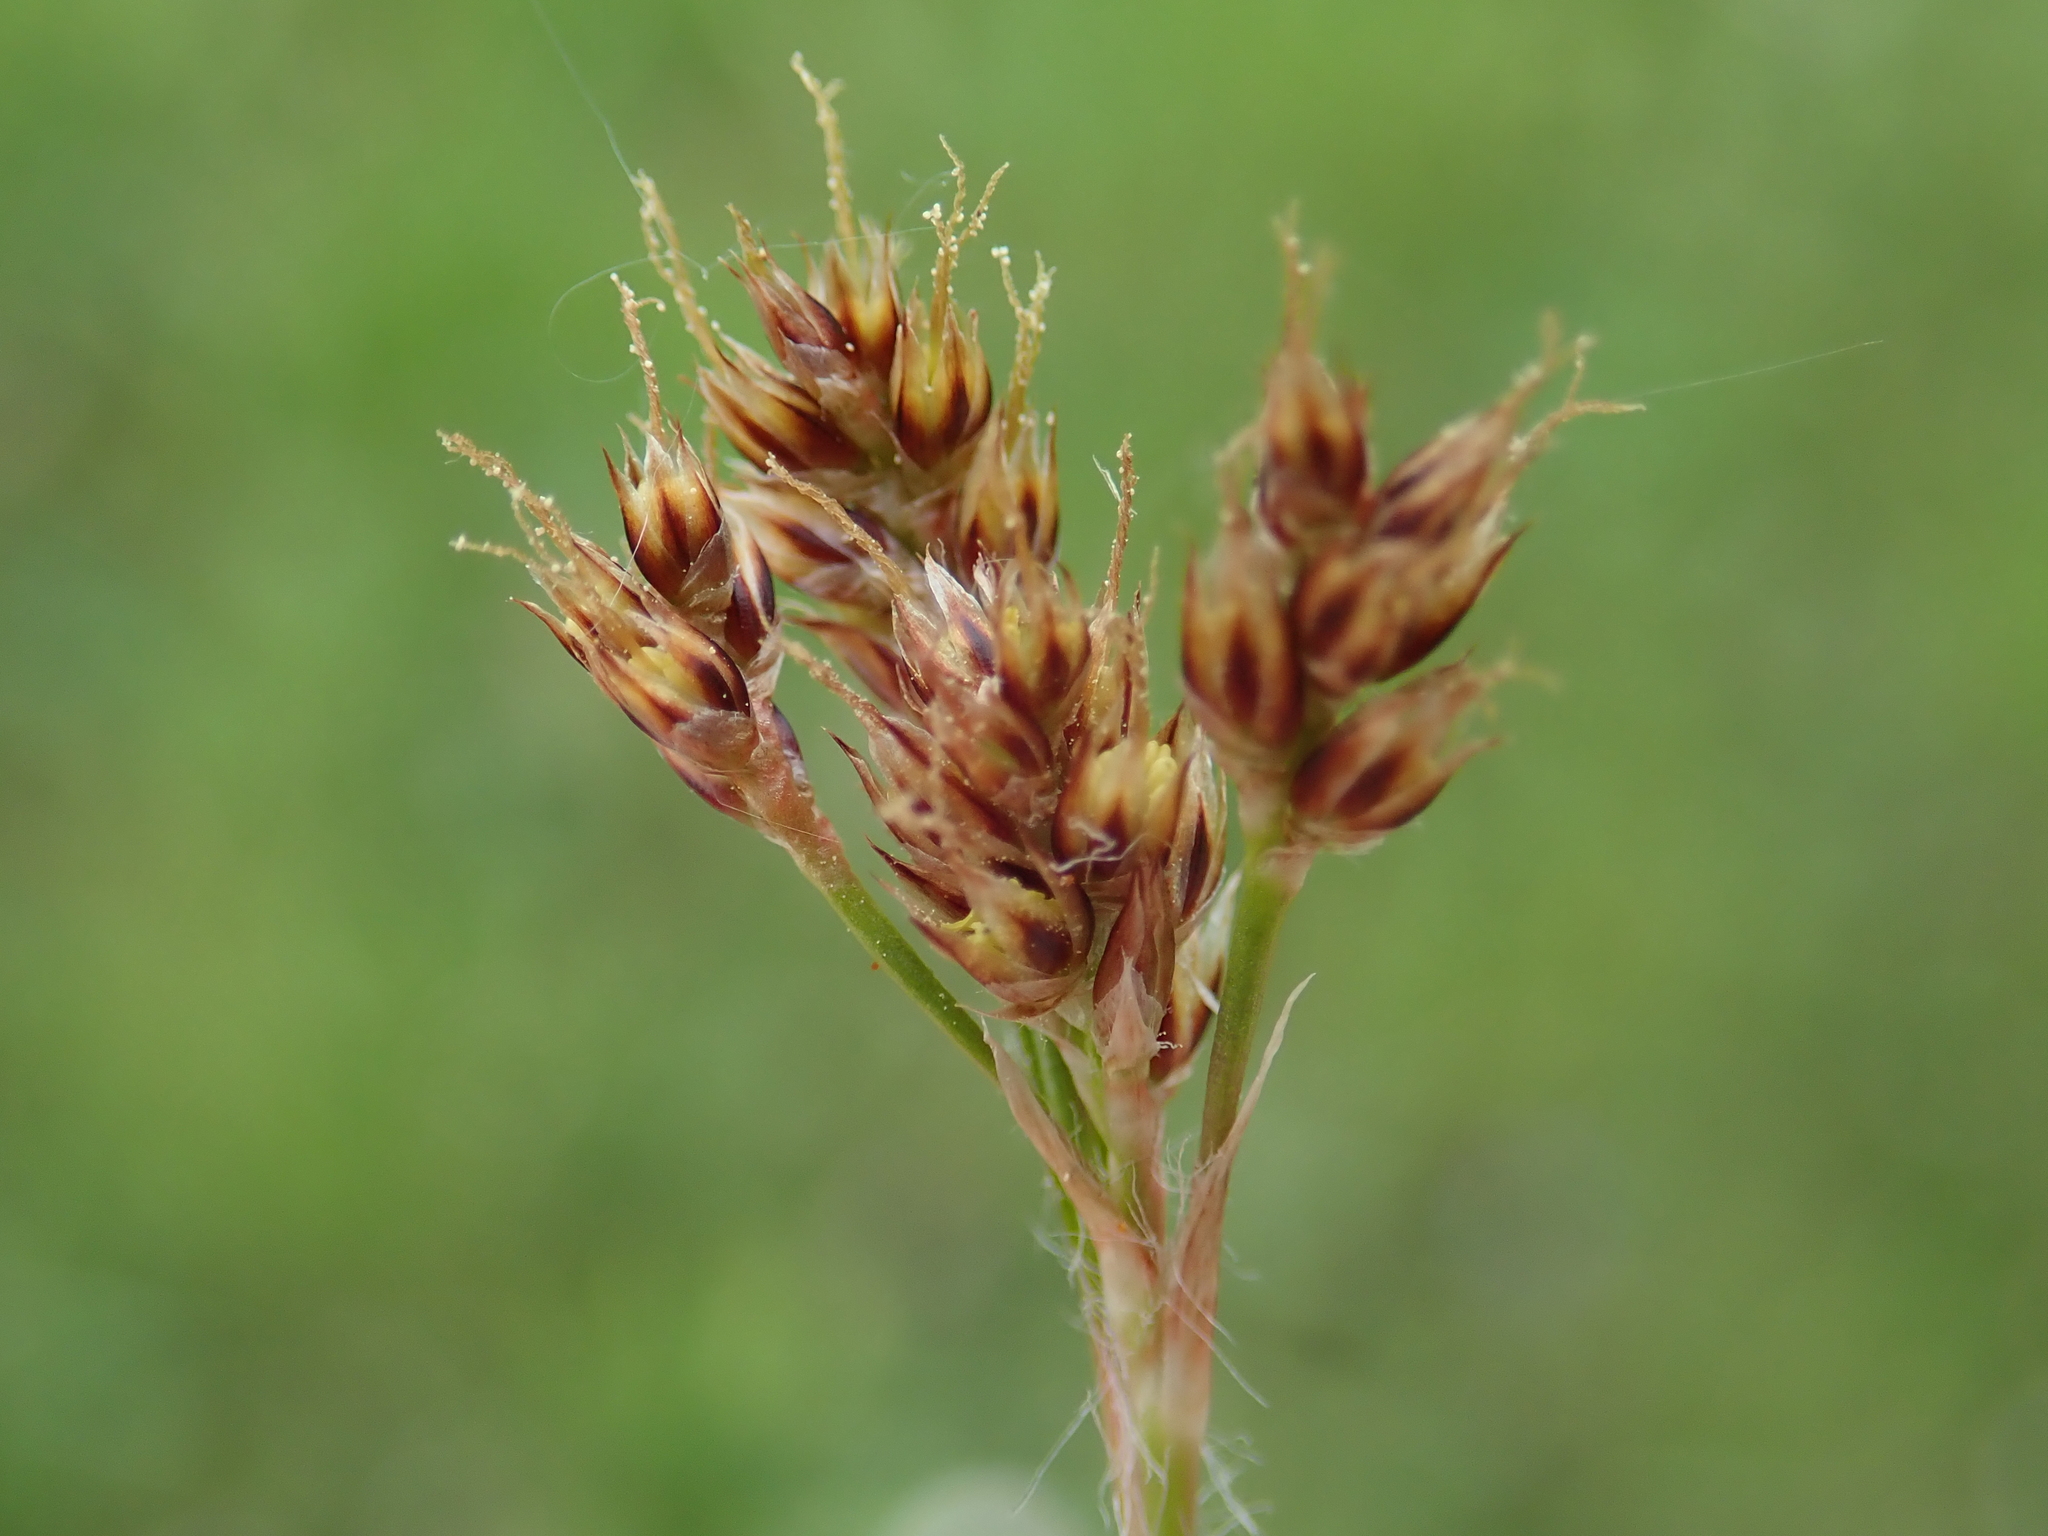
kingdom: Plantae
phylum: Tracheophyta
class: Liliopsida
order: Poales
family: Juncaceae
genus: Luzula
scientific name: Luzula campestris
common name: Field wood-rush
